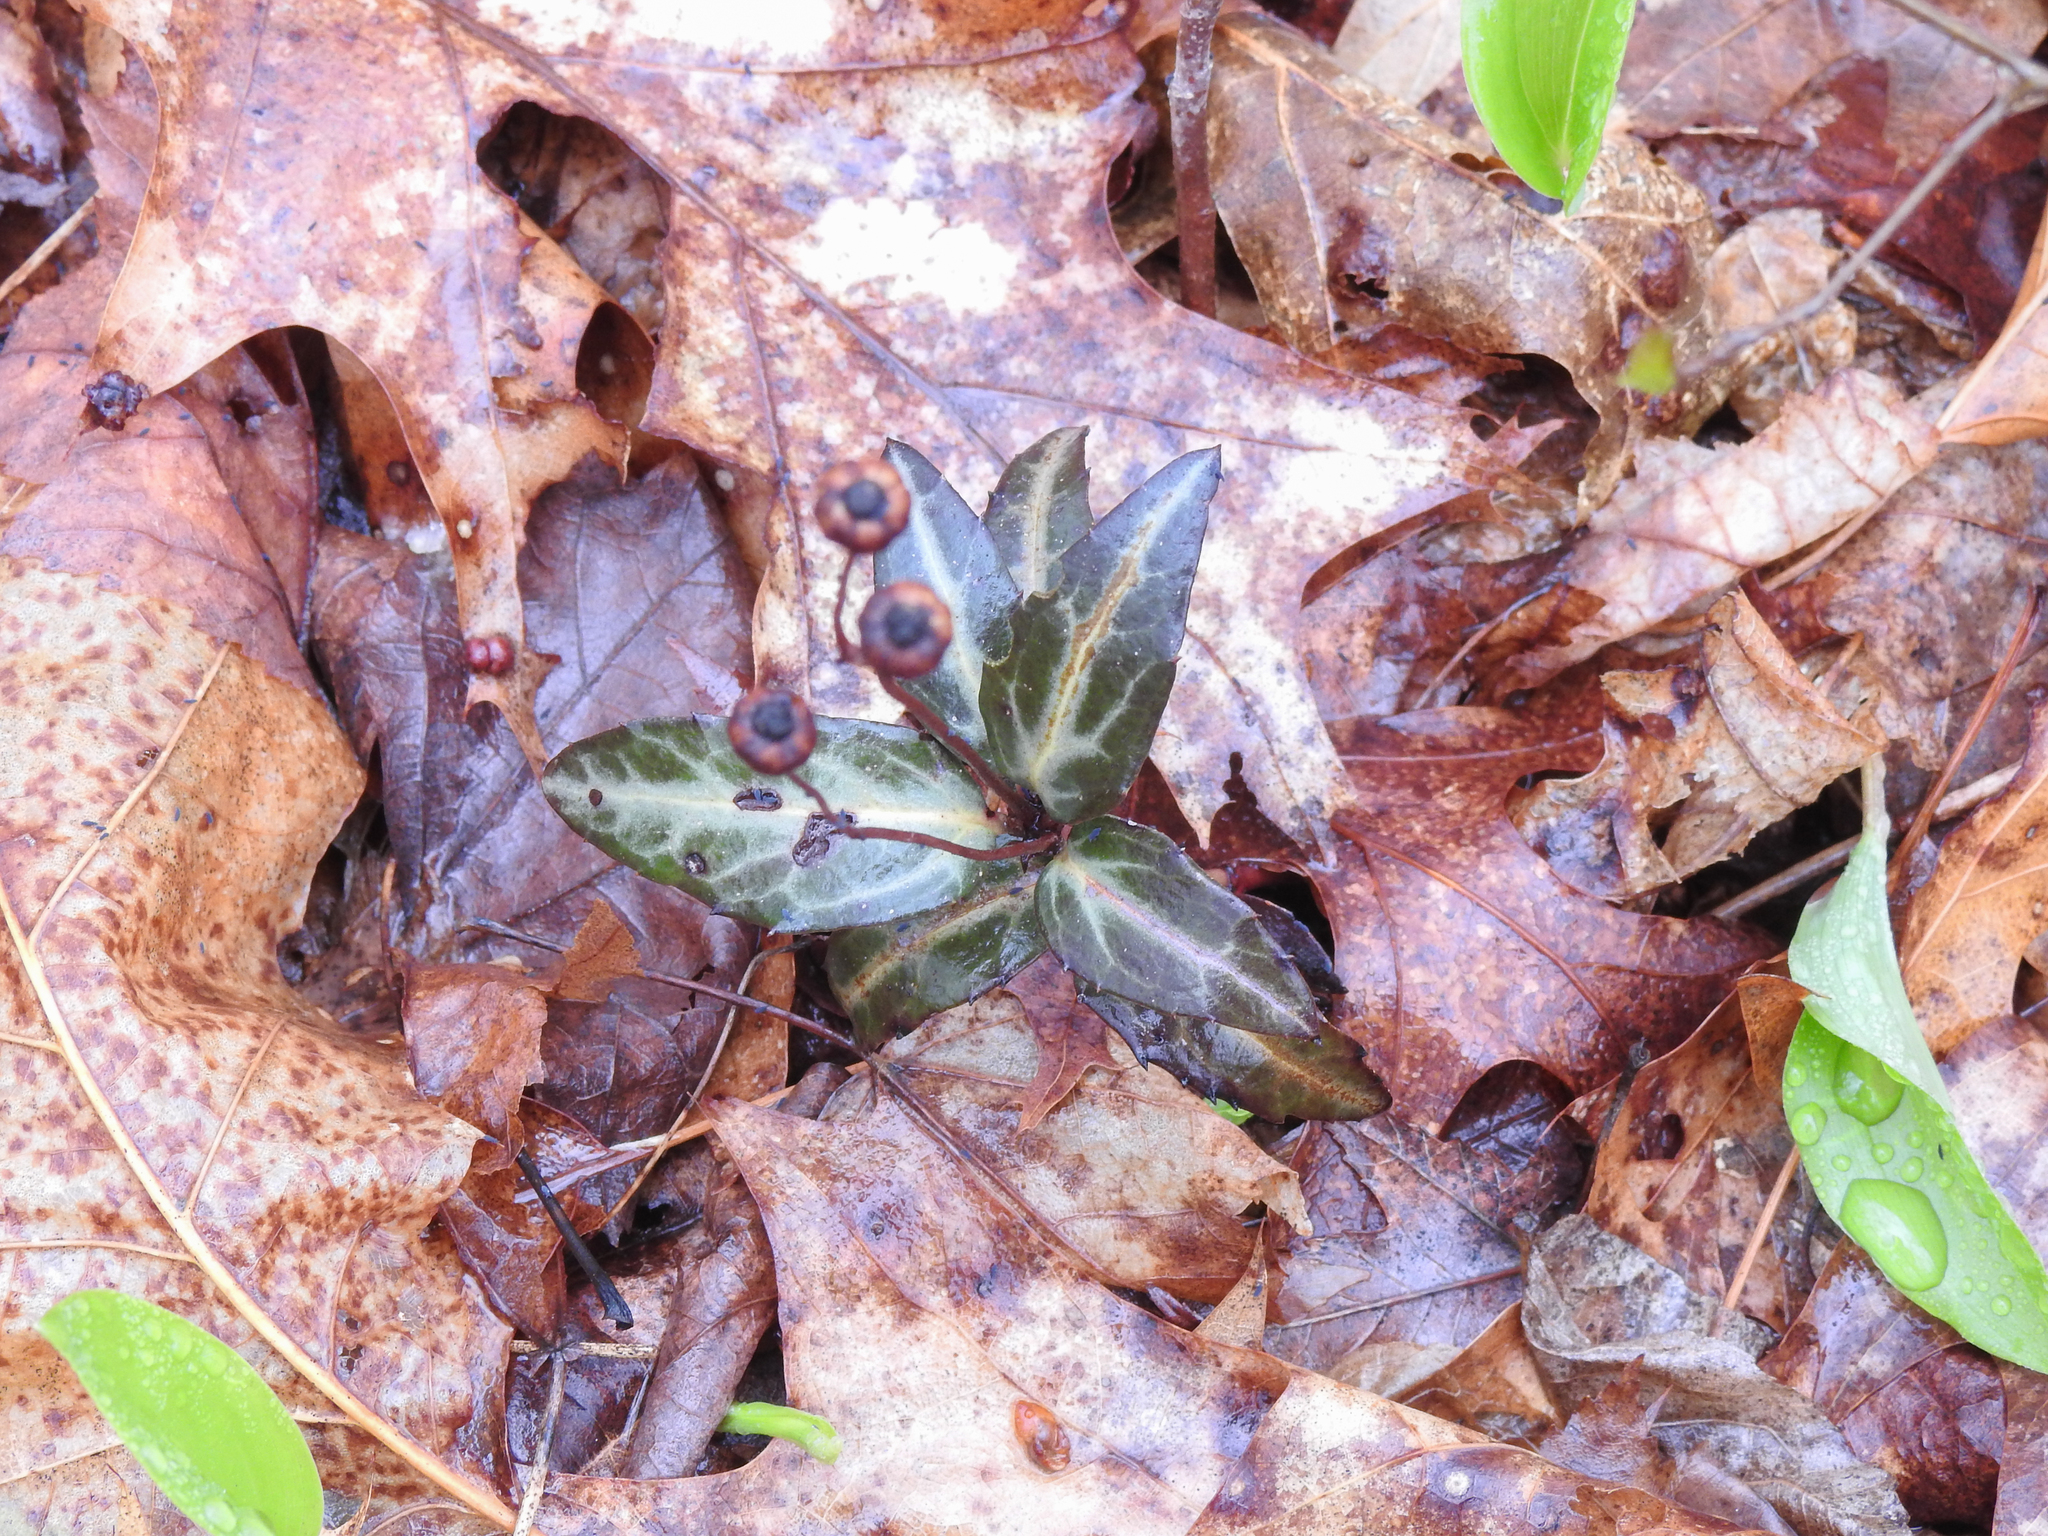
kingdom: Plantae
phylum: Tracheophyta
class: Magnoliopsida
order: Ericales
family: Ericaceae
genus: Chimaphila
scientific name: Chimaphila maculata
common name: Spotted pipsissewa
